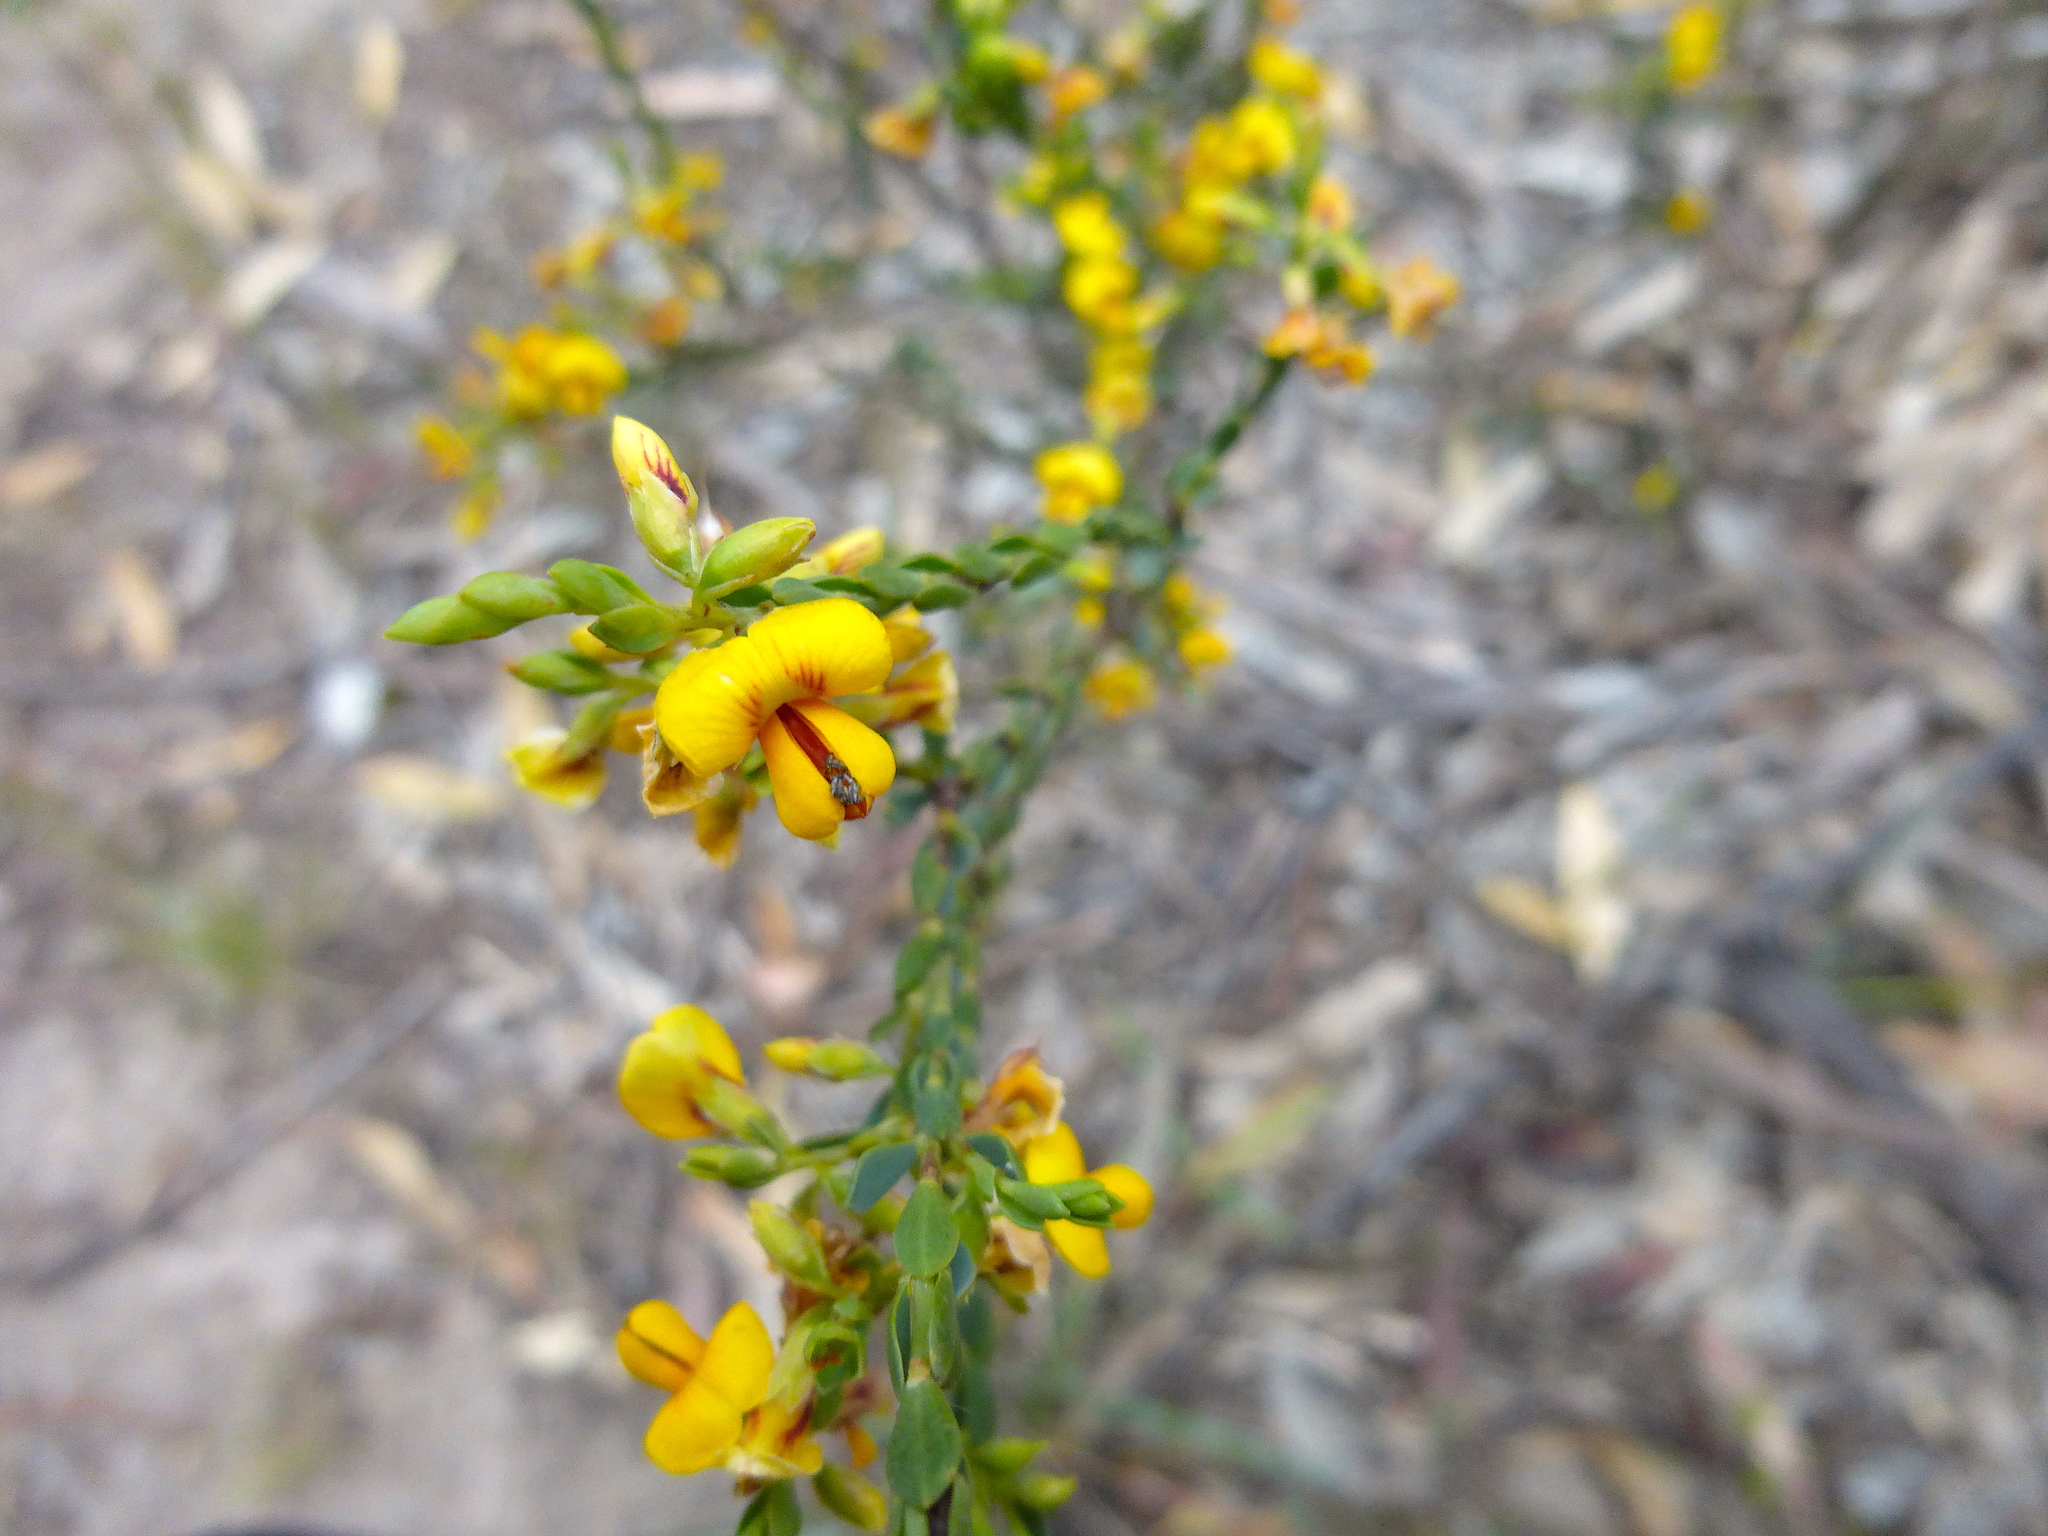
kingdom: Plantae
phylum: Tracheophyta
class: Magnoliopsida
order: Fabales
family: Fabaceae
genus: Eutaxia
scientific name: Eutaxia diffusa
